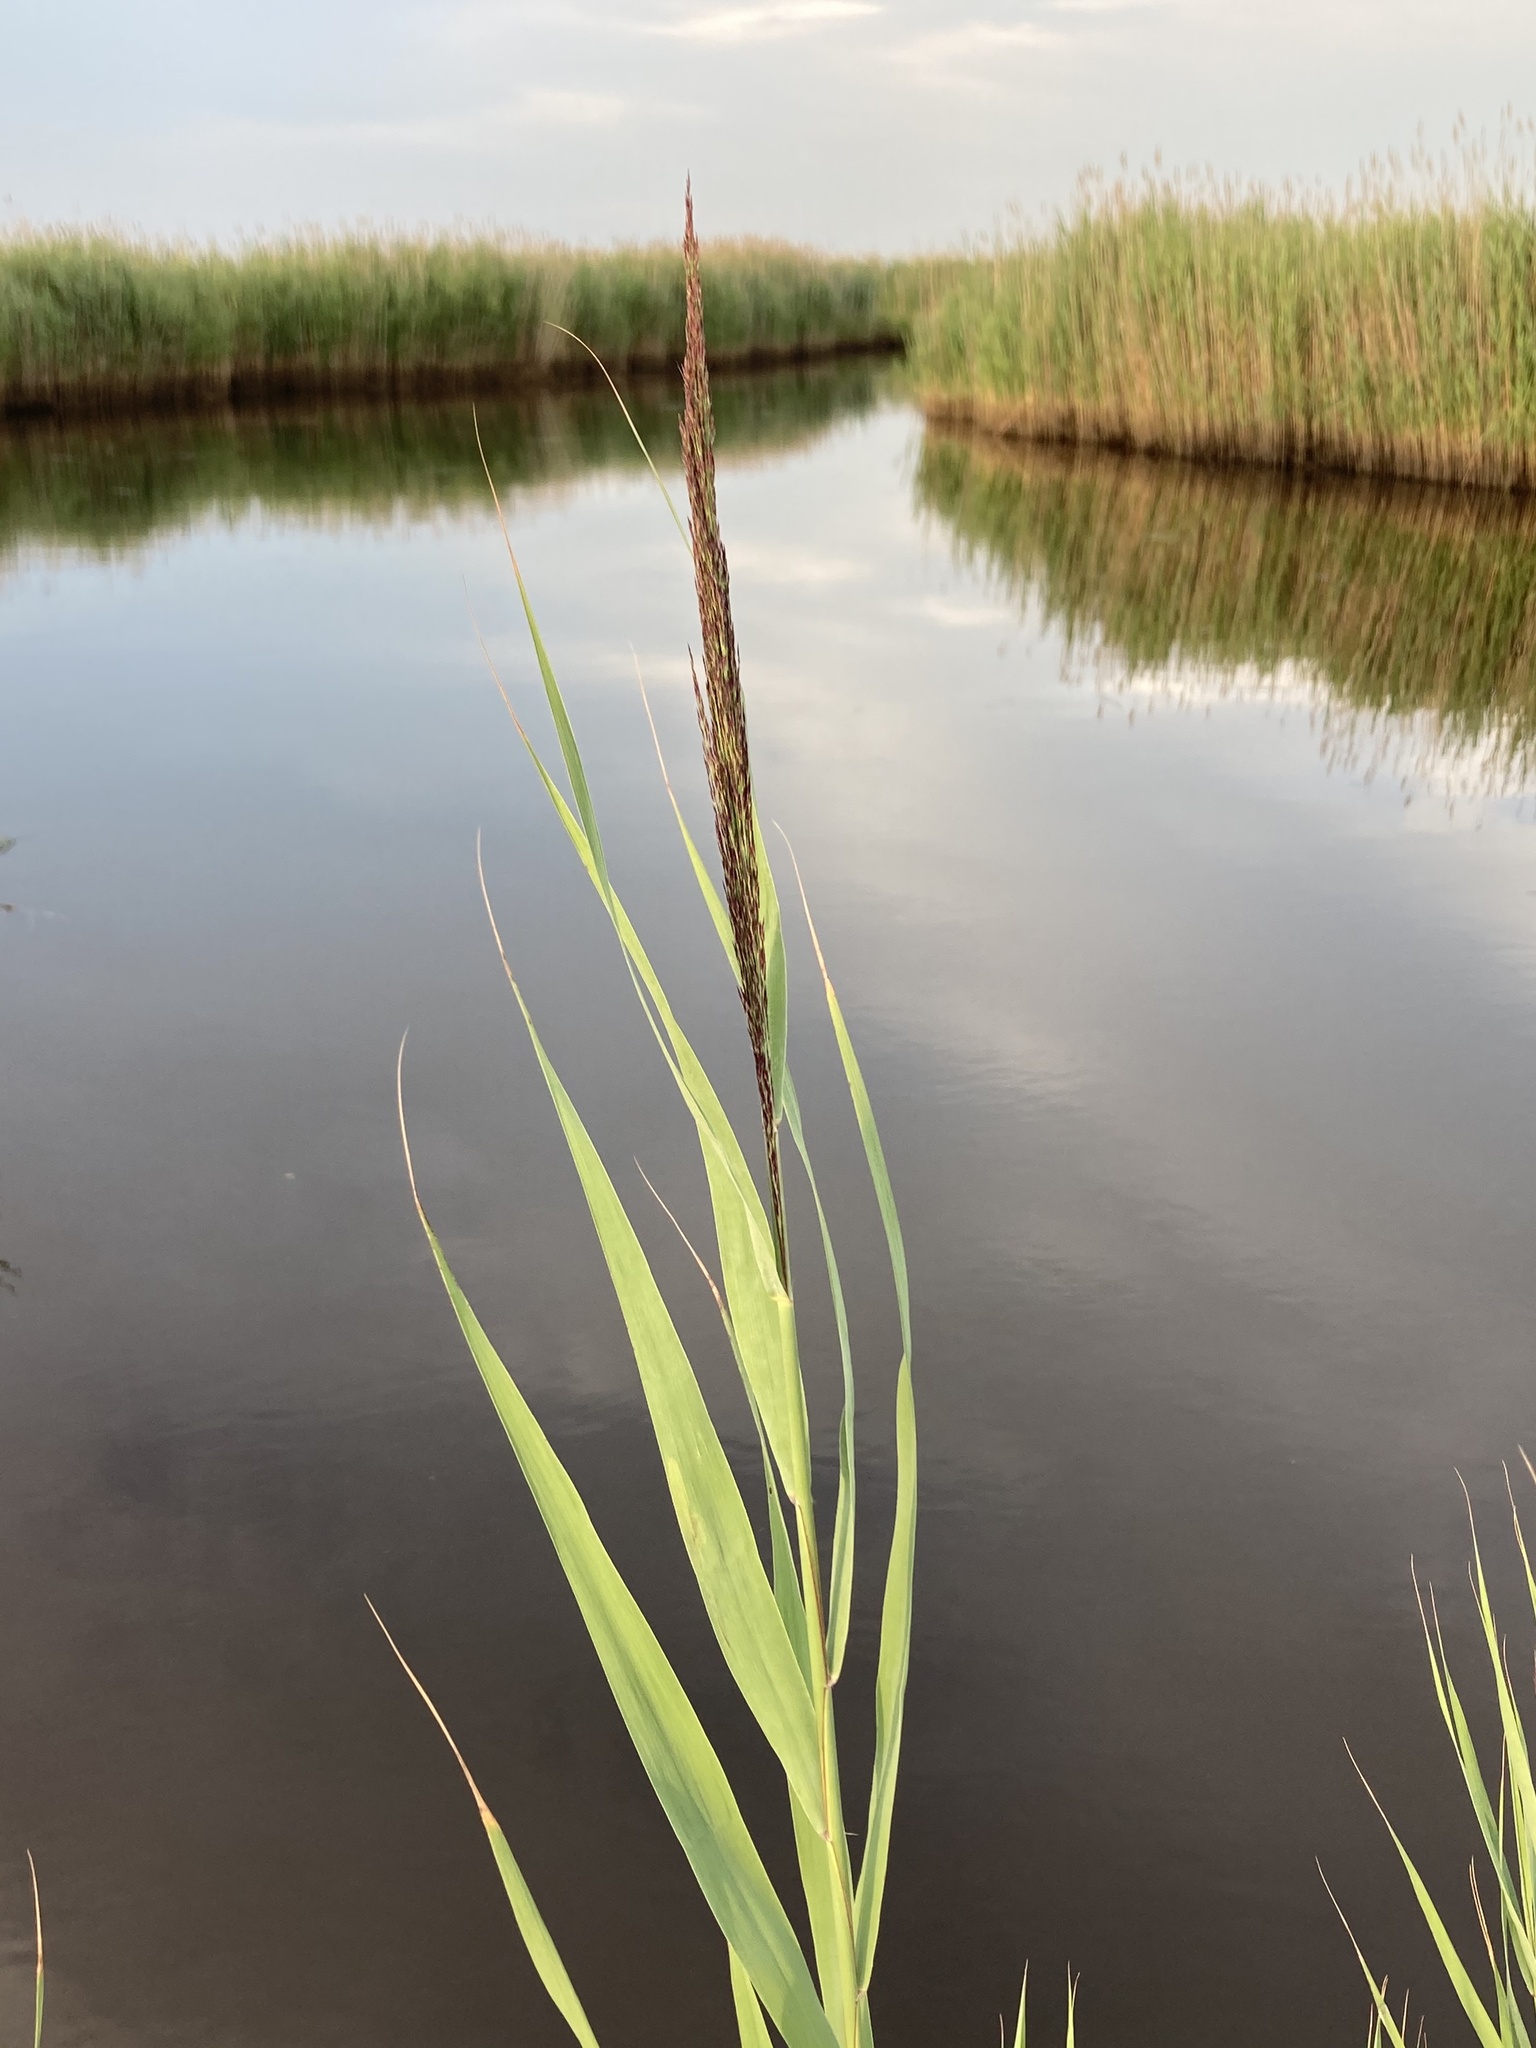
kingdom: Plantae
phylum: Tracheophyta
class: Liliopsida
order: Poales
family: Poaceae
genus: Phragmites
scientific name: Phragmites australis
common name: Common reed
